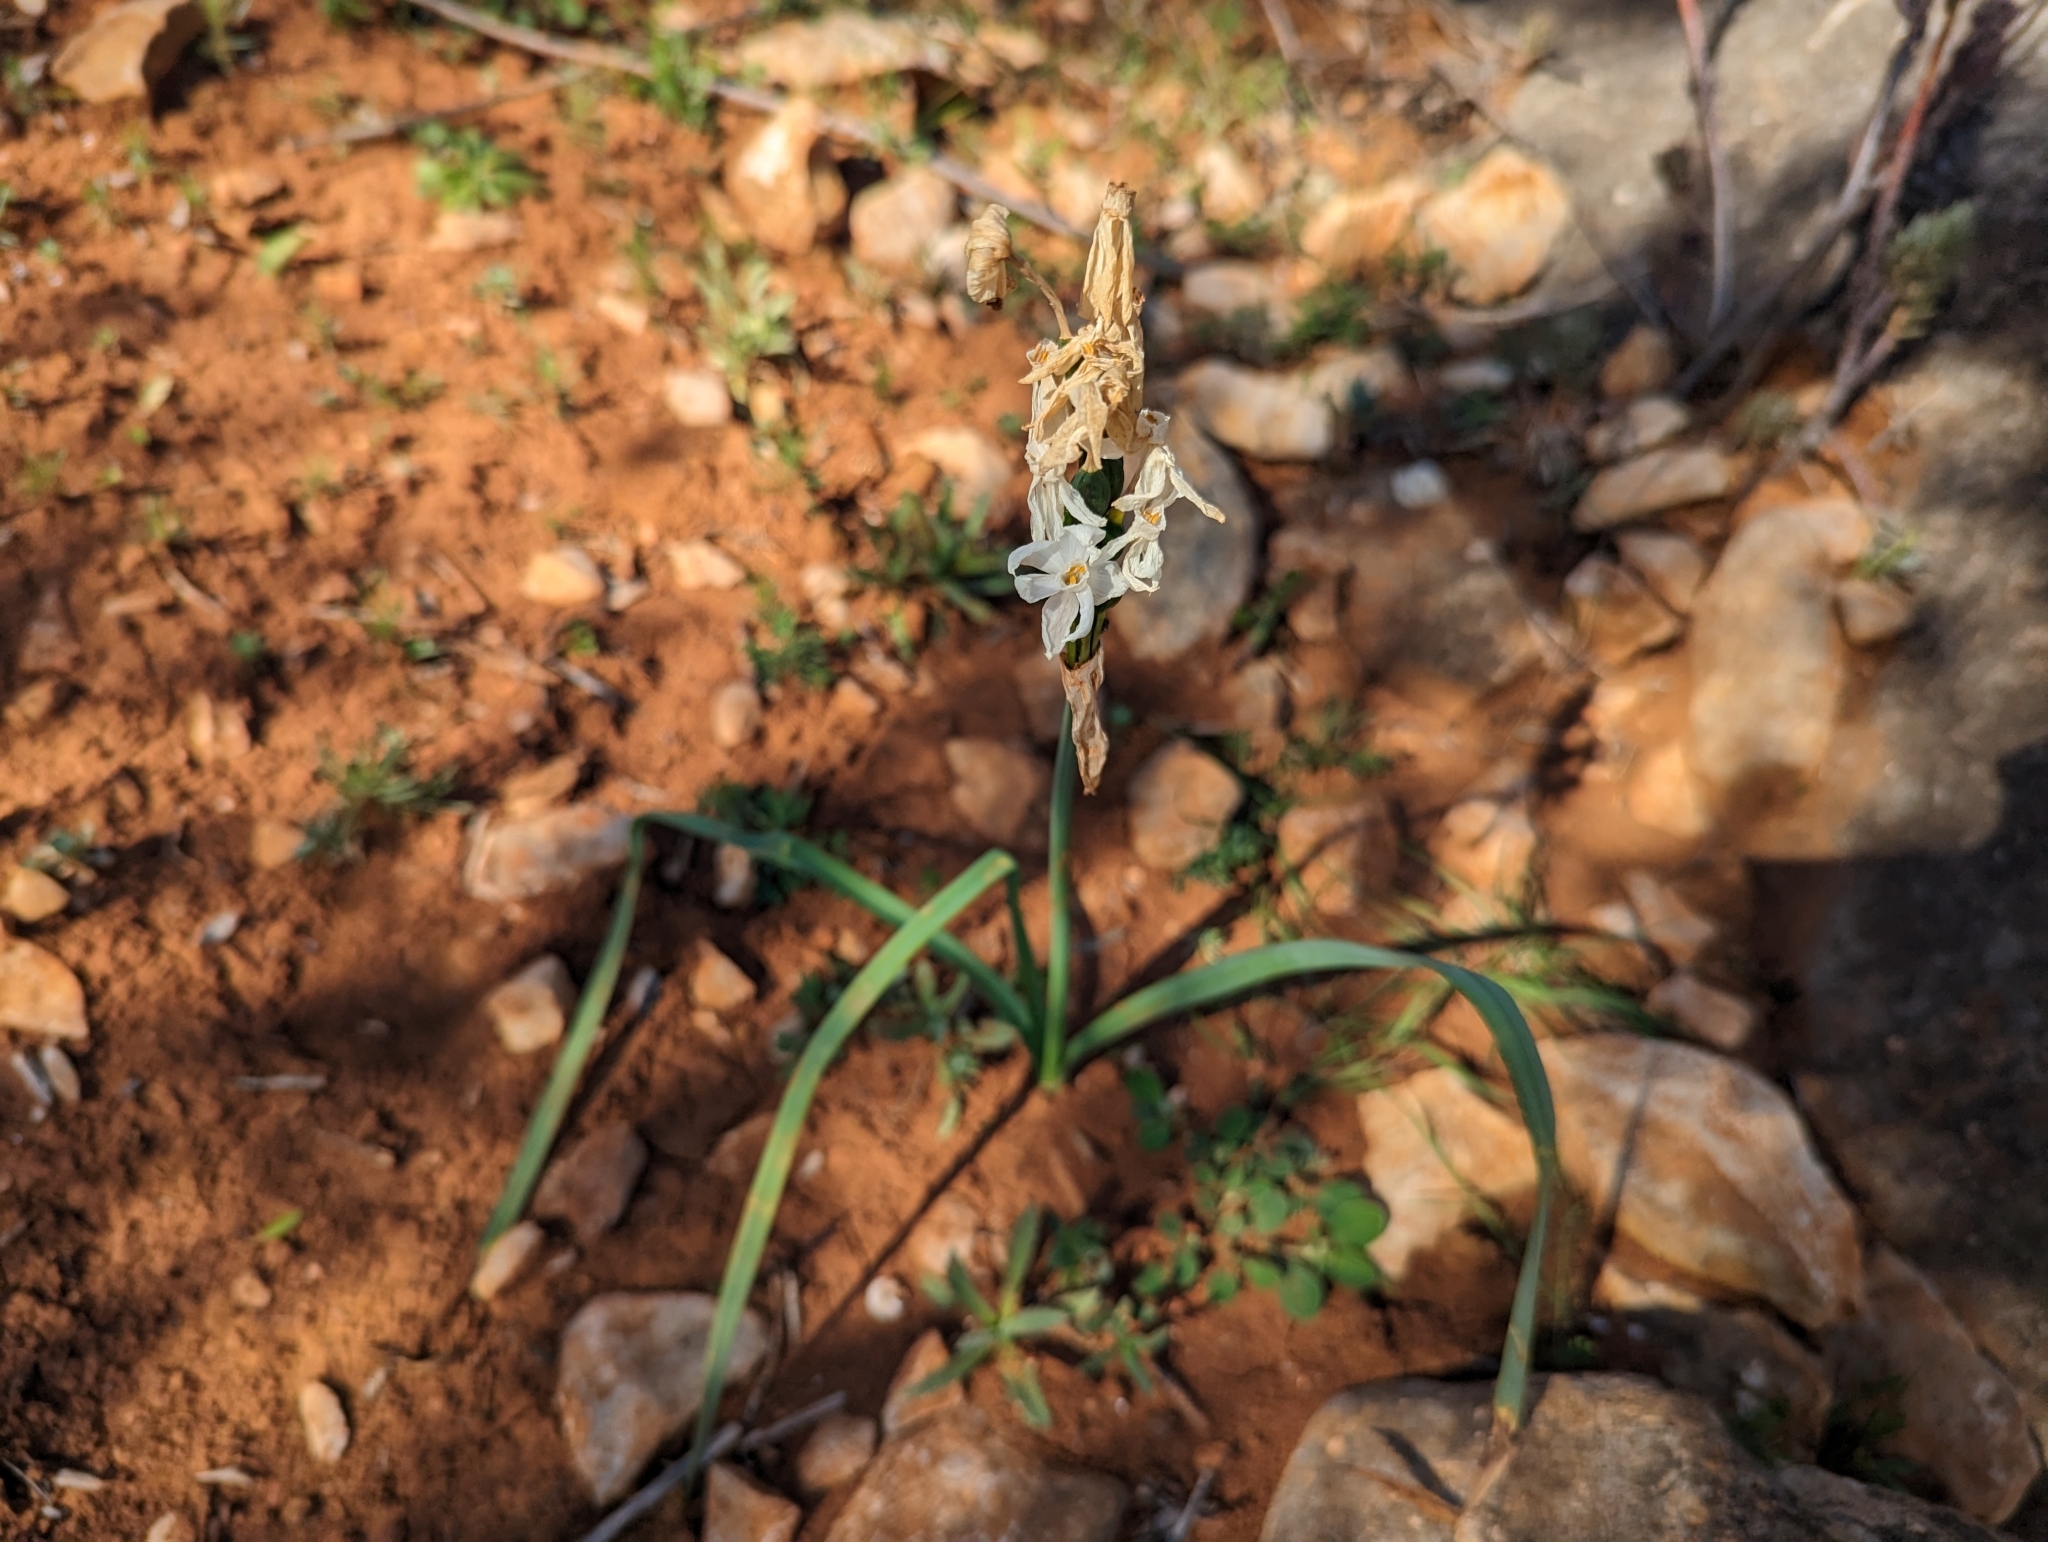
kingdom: Plantae
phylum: Tracheophyta
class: Liliopsida
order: Asparagales
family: Amaryllidaceae
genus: Narcissus
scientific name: Narcissus papyraceus
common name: Paper-white daffodil
